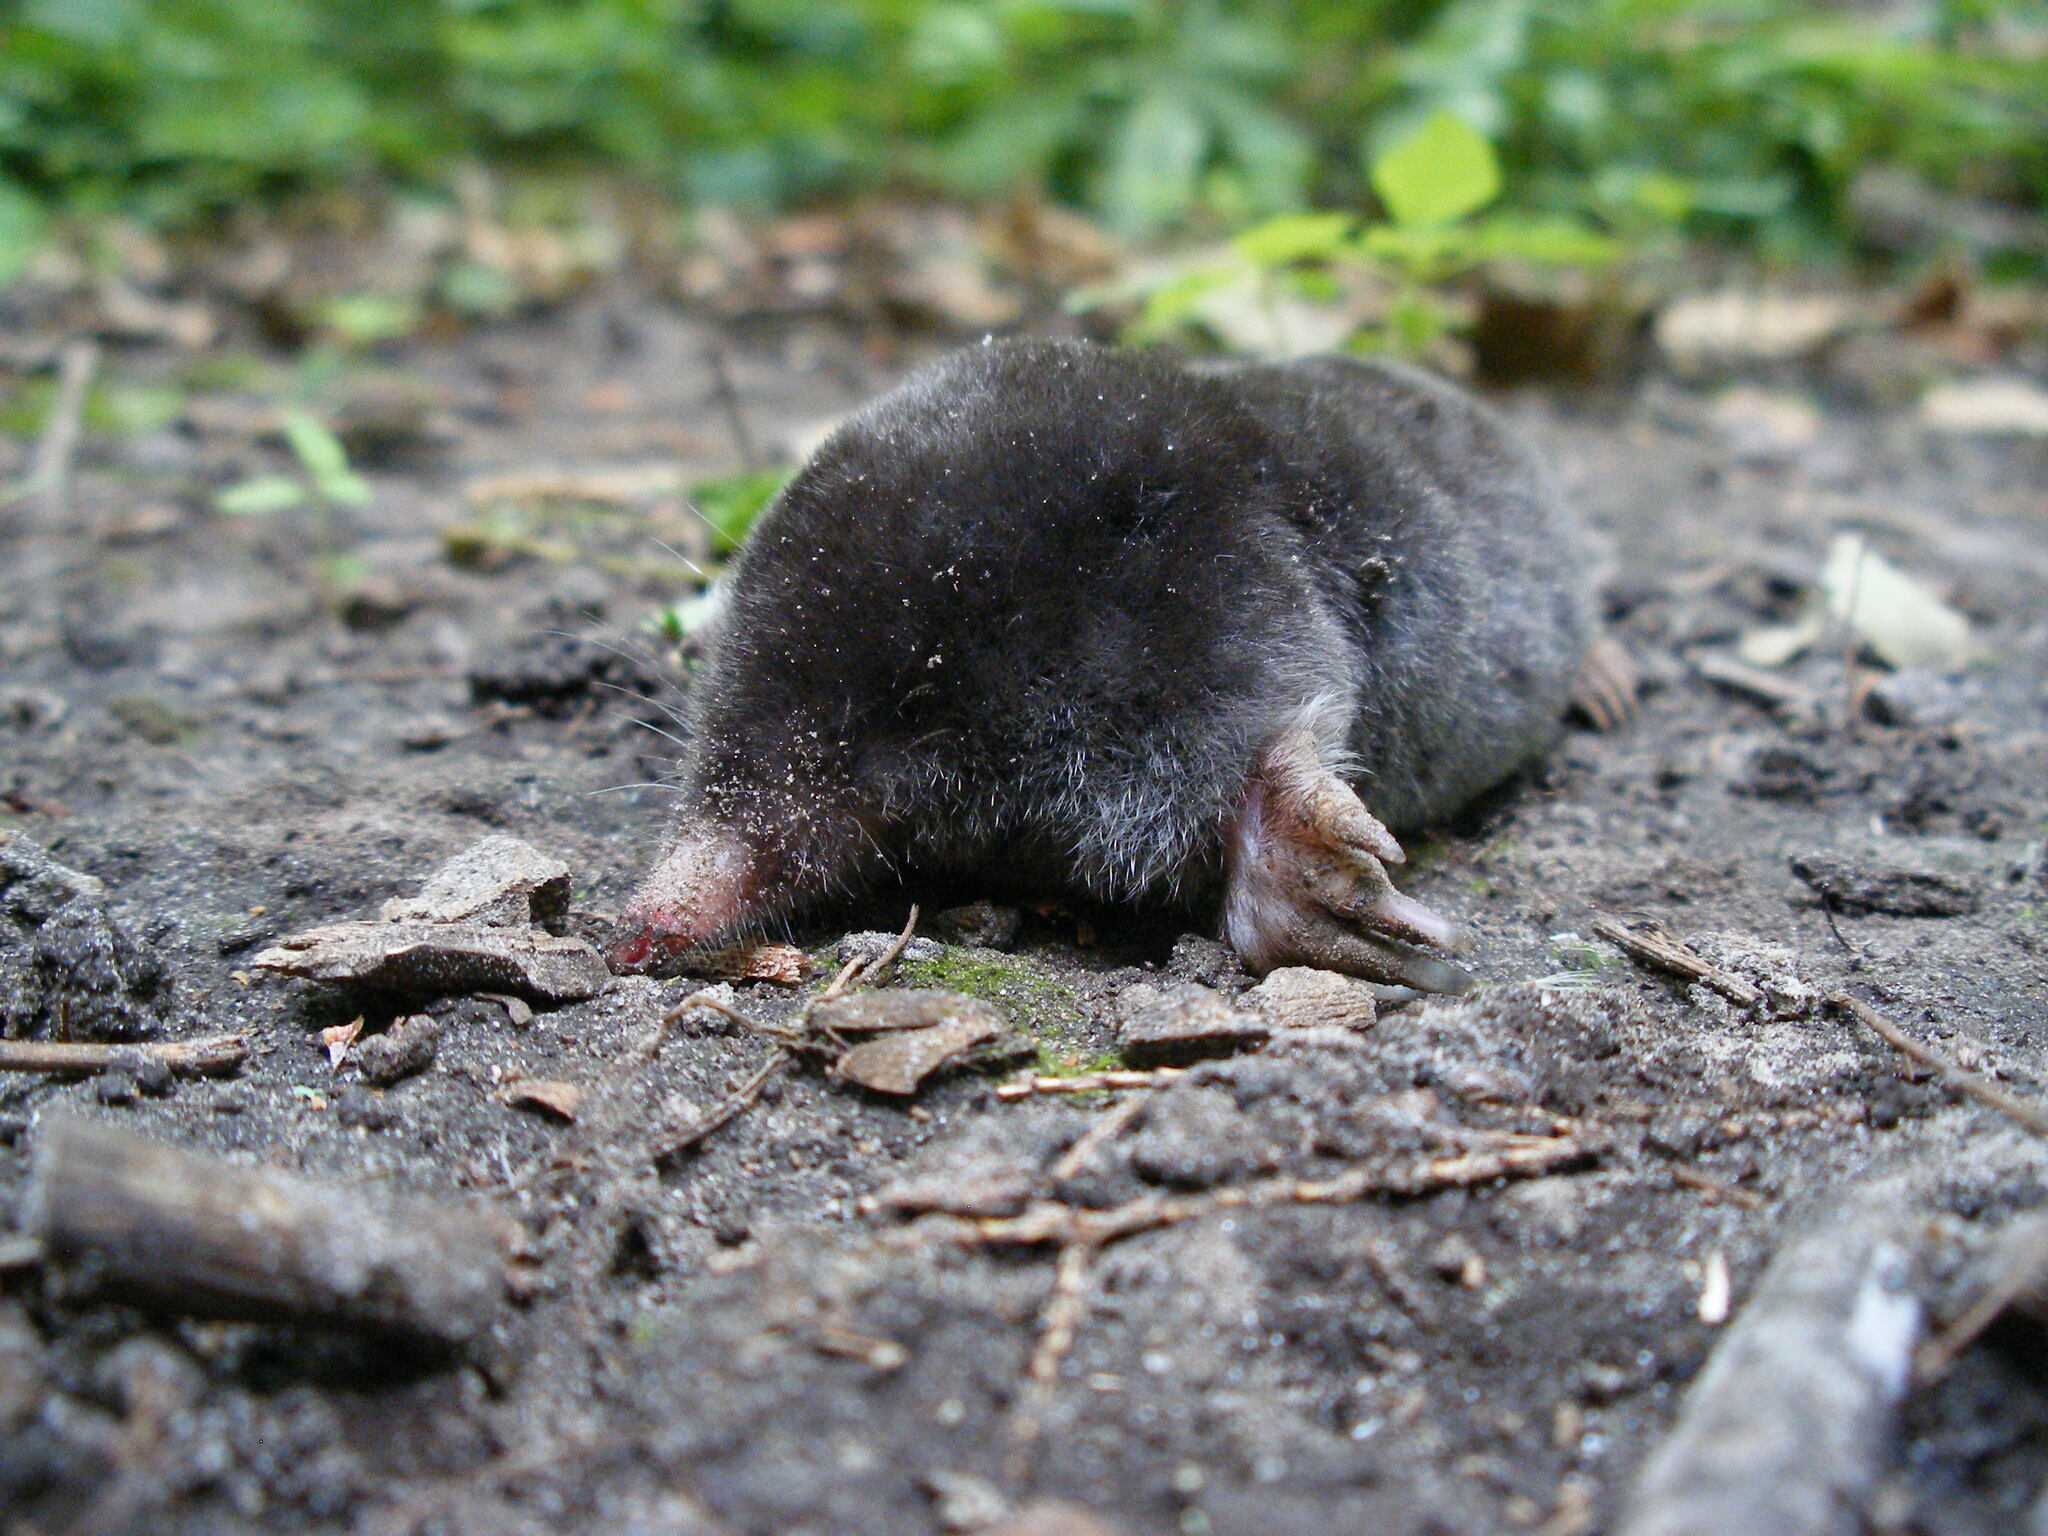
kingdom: Animalia
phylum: Chordata
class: Mammalia
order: Soricomorpha
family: Talpidae
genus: Parascalops
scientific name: Parascalops breweri
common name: Hairy-tailed mole
